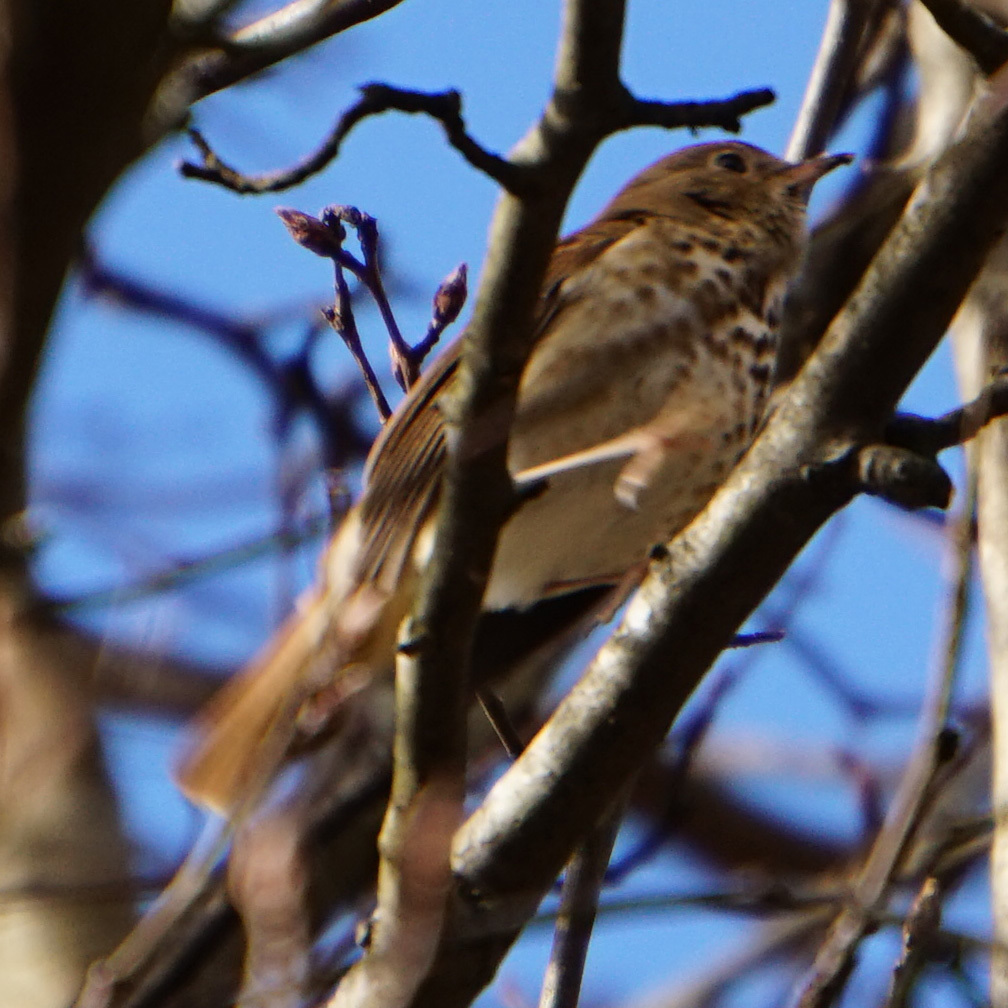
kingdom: Animalia
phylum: Chordata
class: Aves
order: Passeriformes
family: Turdidae
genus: Catharus
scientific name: Catharus guttatus
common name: Hermit thrush
